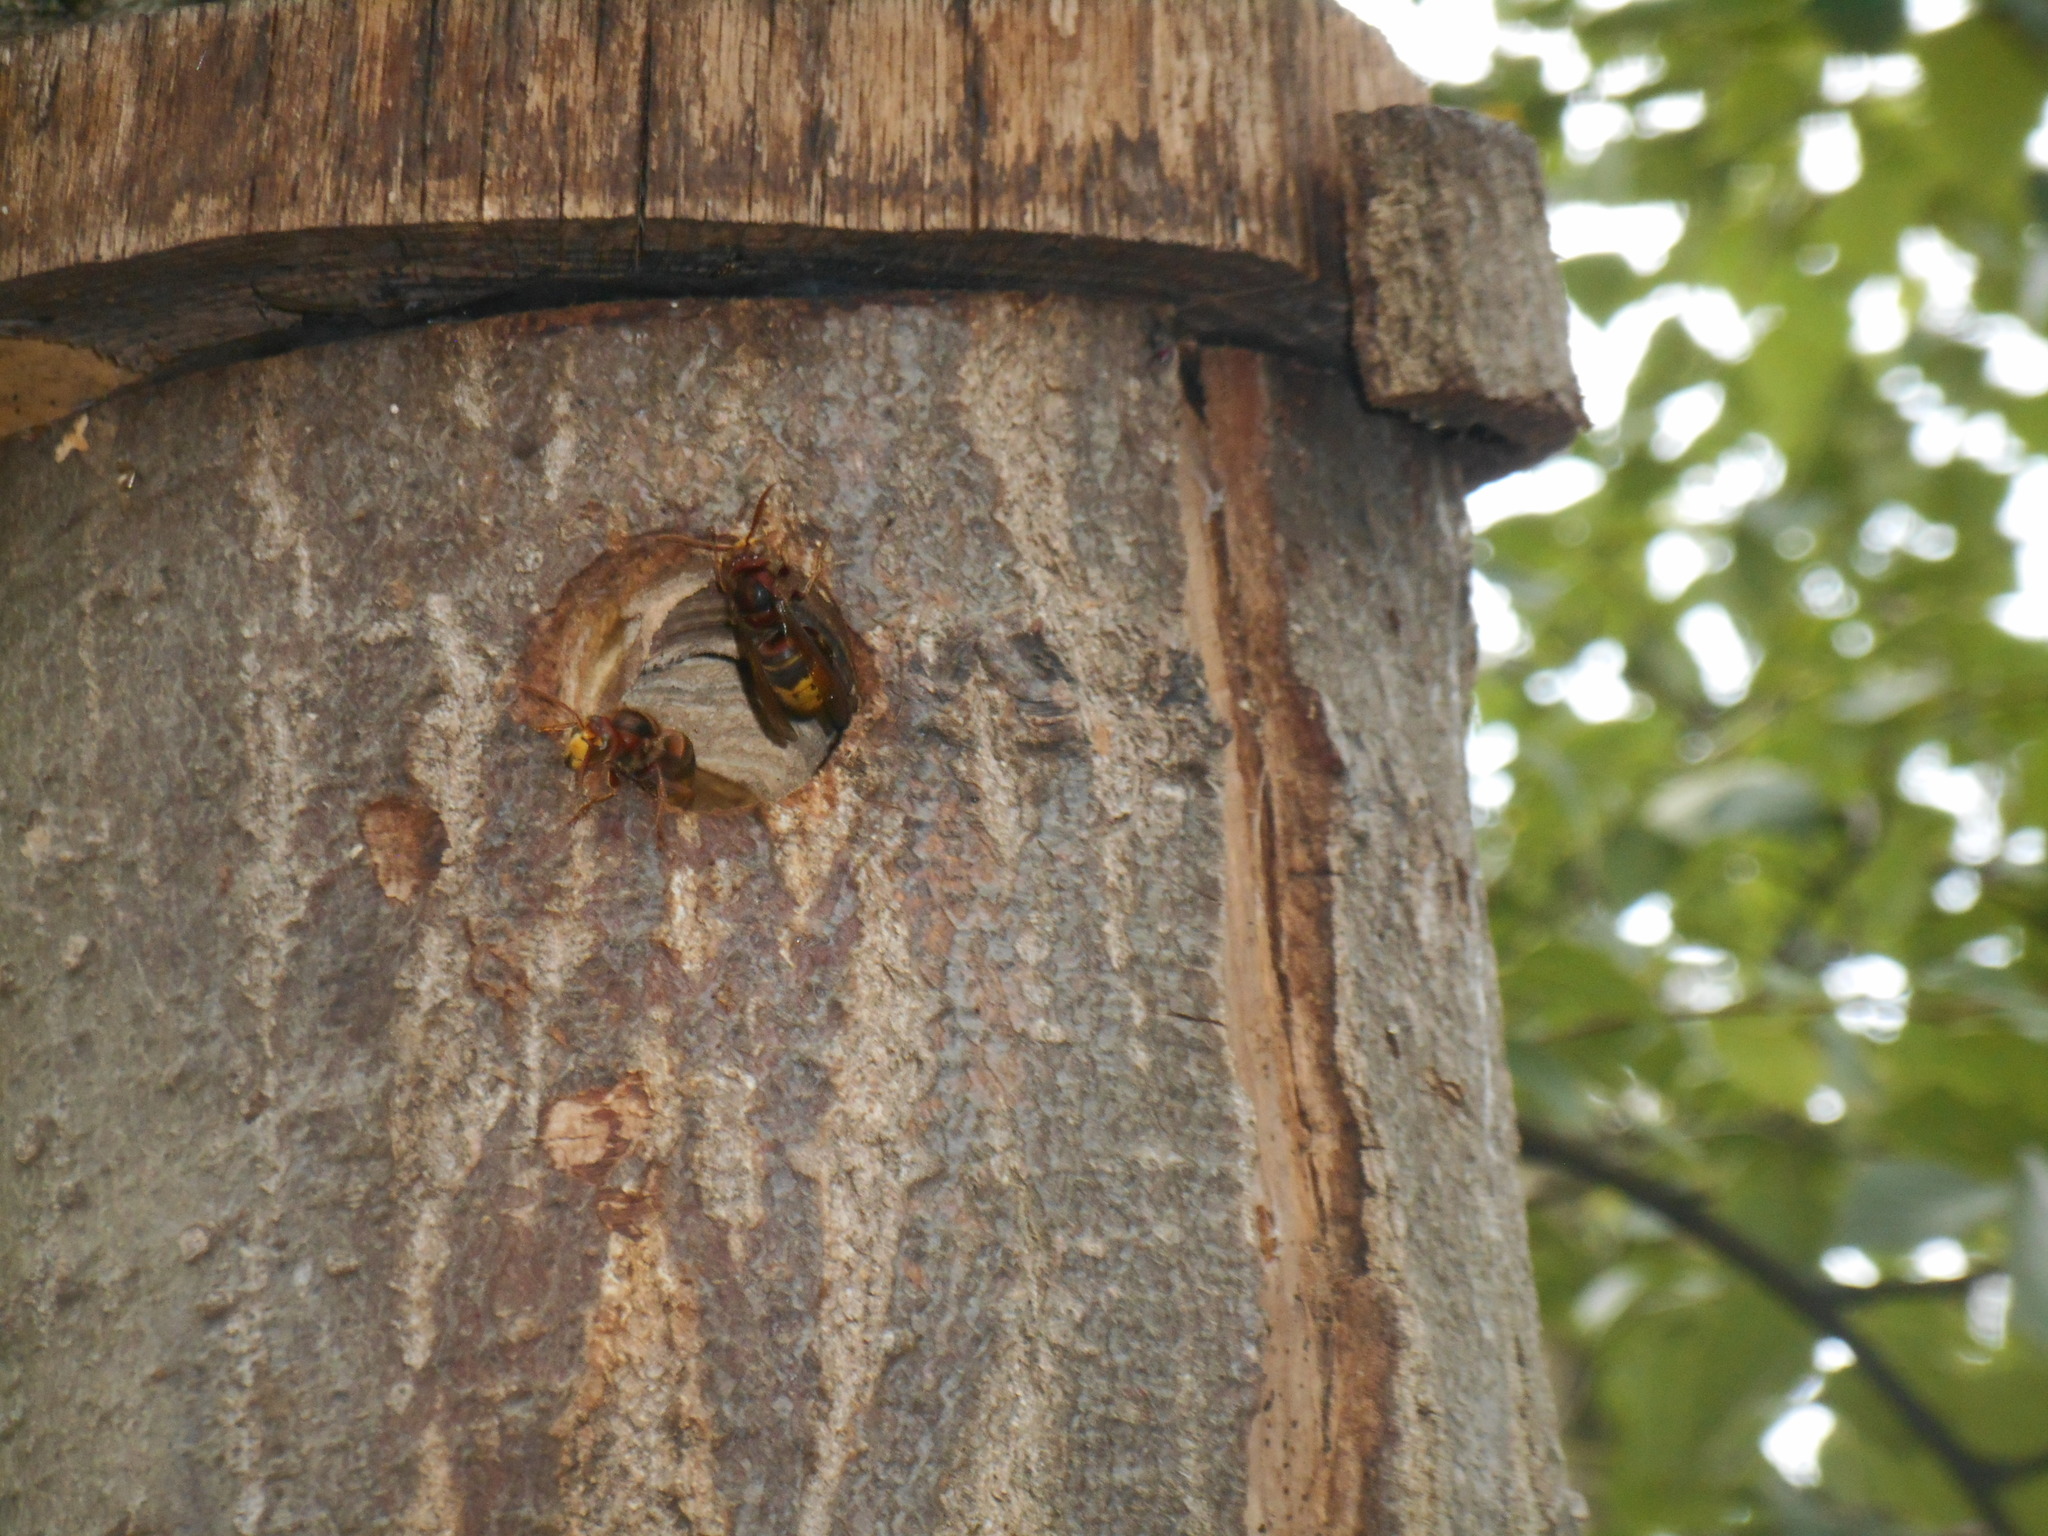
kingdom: Animalia
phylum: Arthropoda
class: Insecta
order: Hymenoptera
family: Vespidae
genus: Vespa
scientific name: Vespa crabro
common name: Hornet
